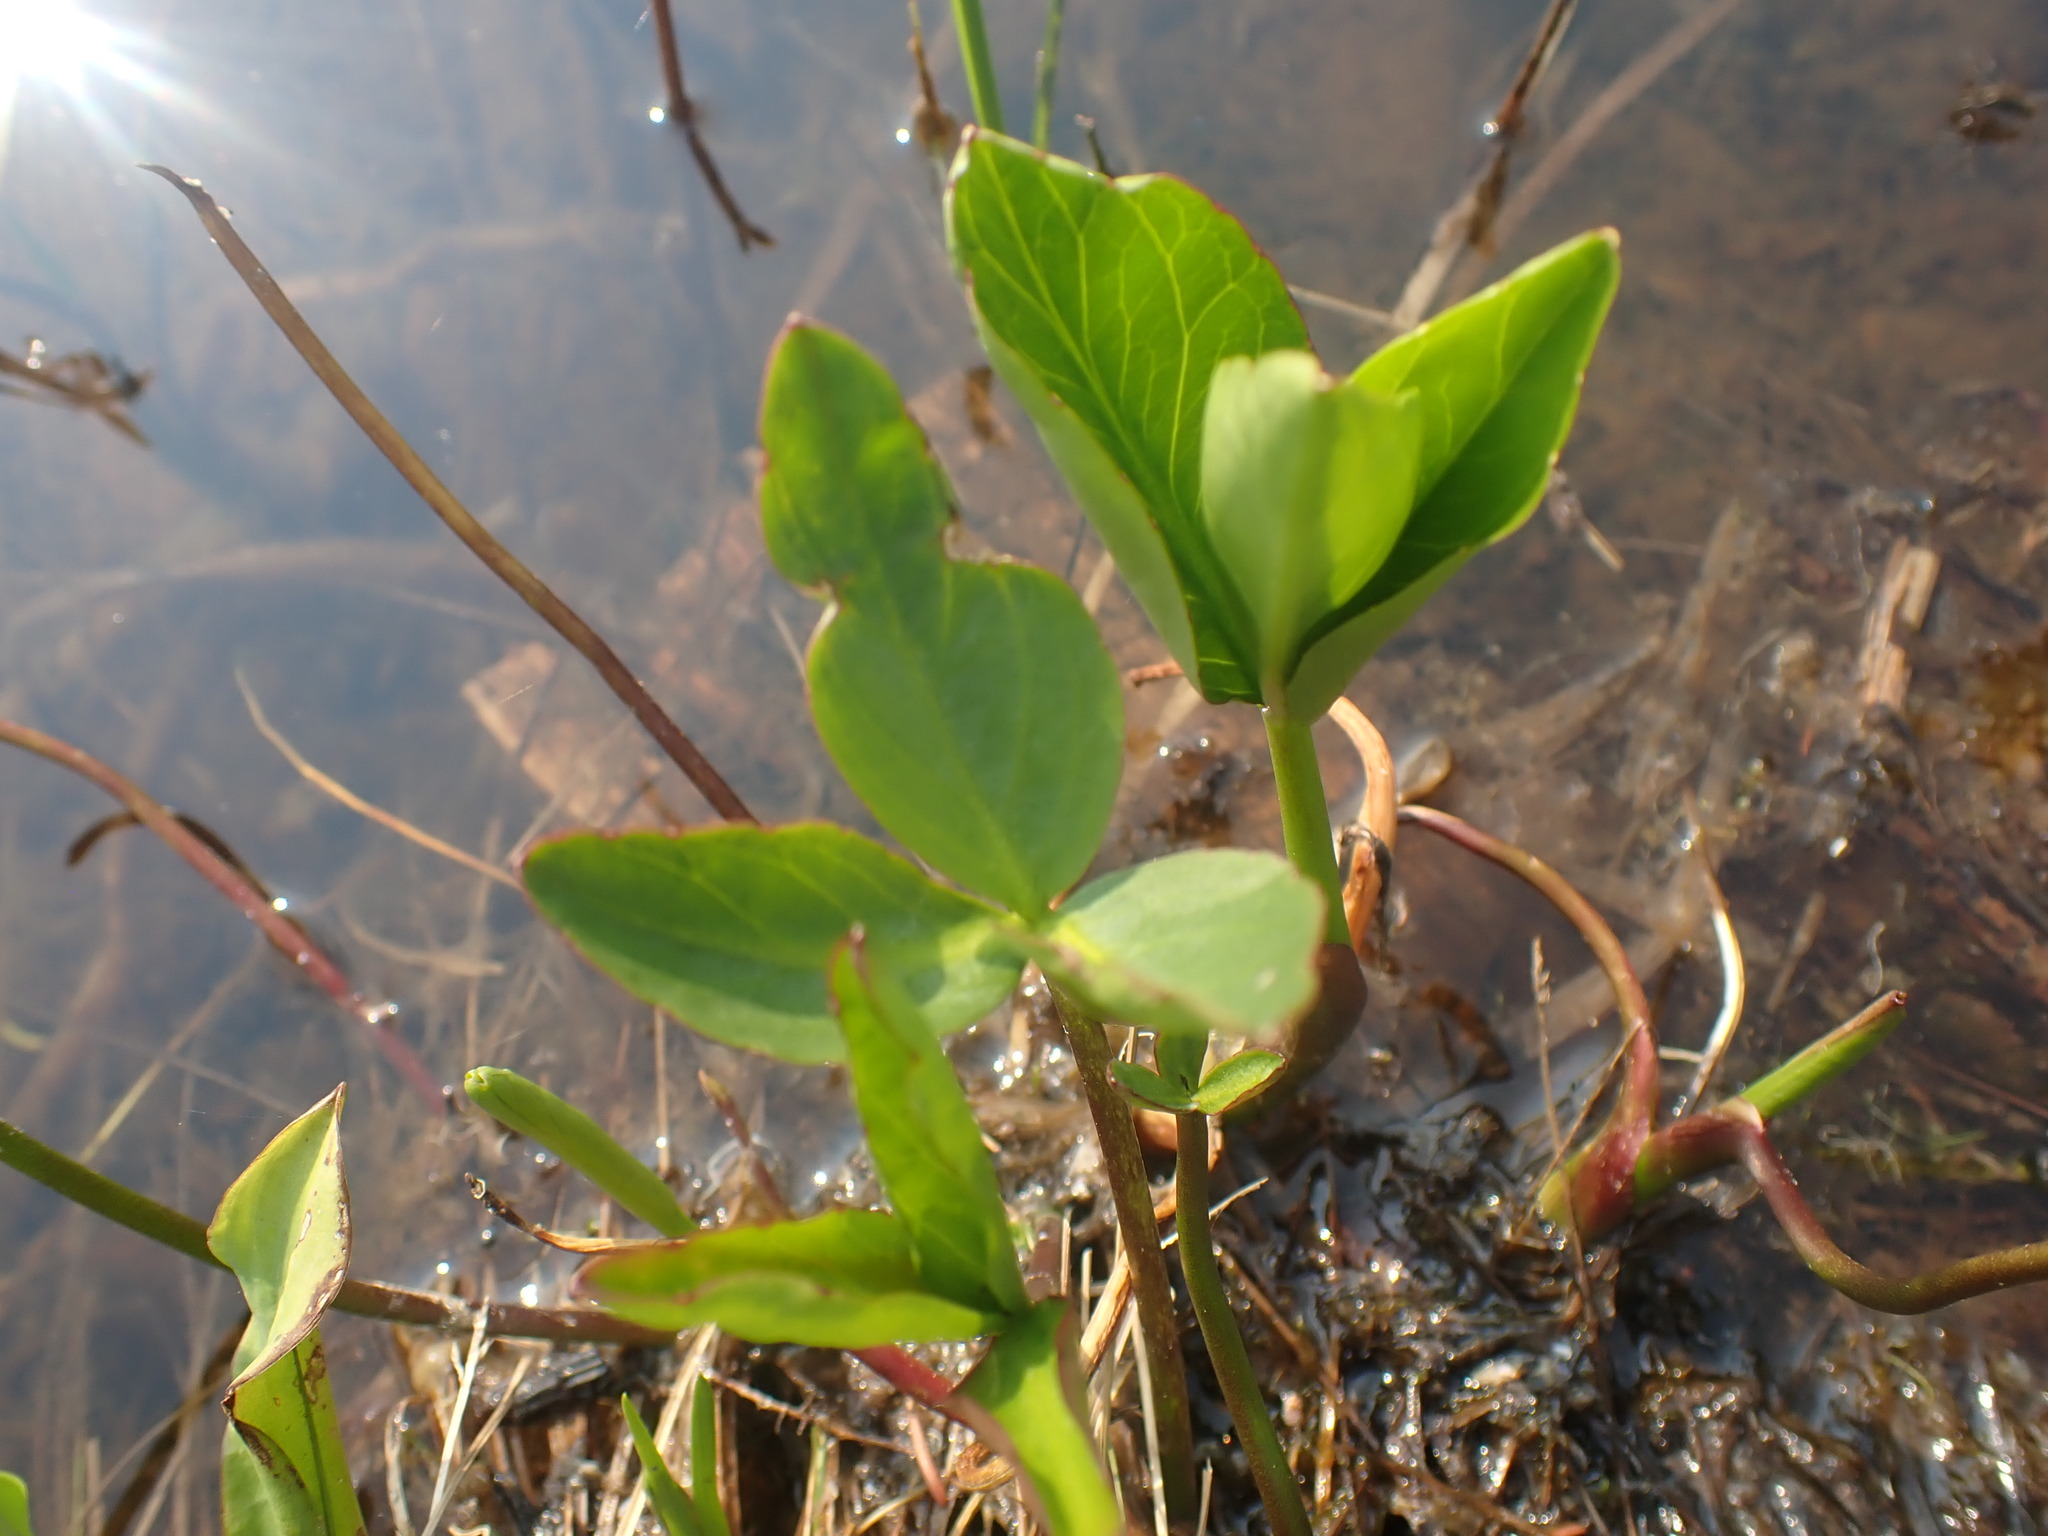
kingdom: Plantae
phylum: Tracheophyta
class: Magnoliopsida
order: Asterales
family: Menyanthaceae
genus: Menyanthes
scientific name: Menyanthes trifoliata
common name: Bogbean
